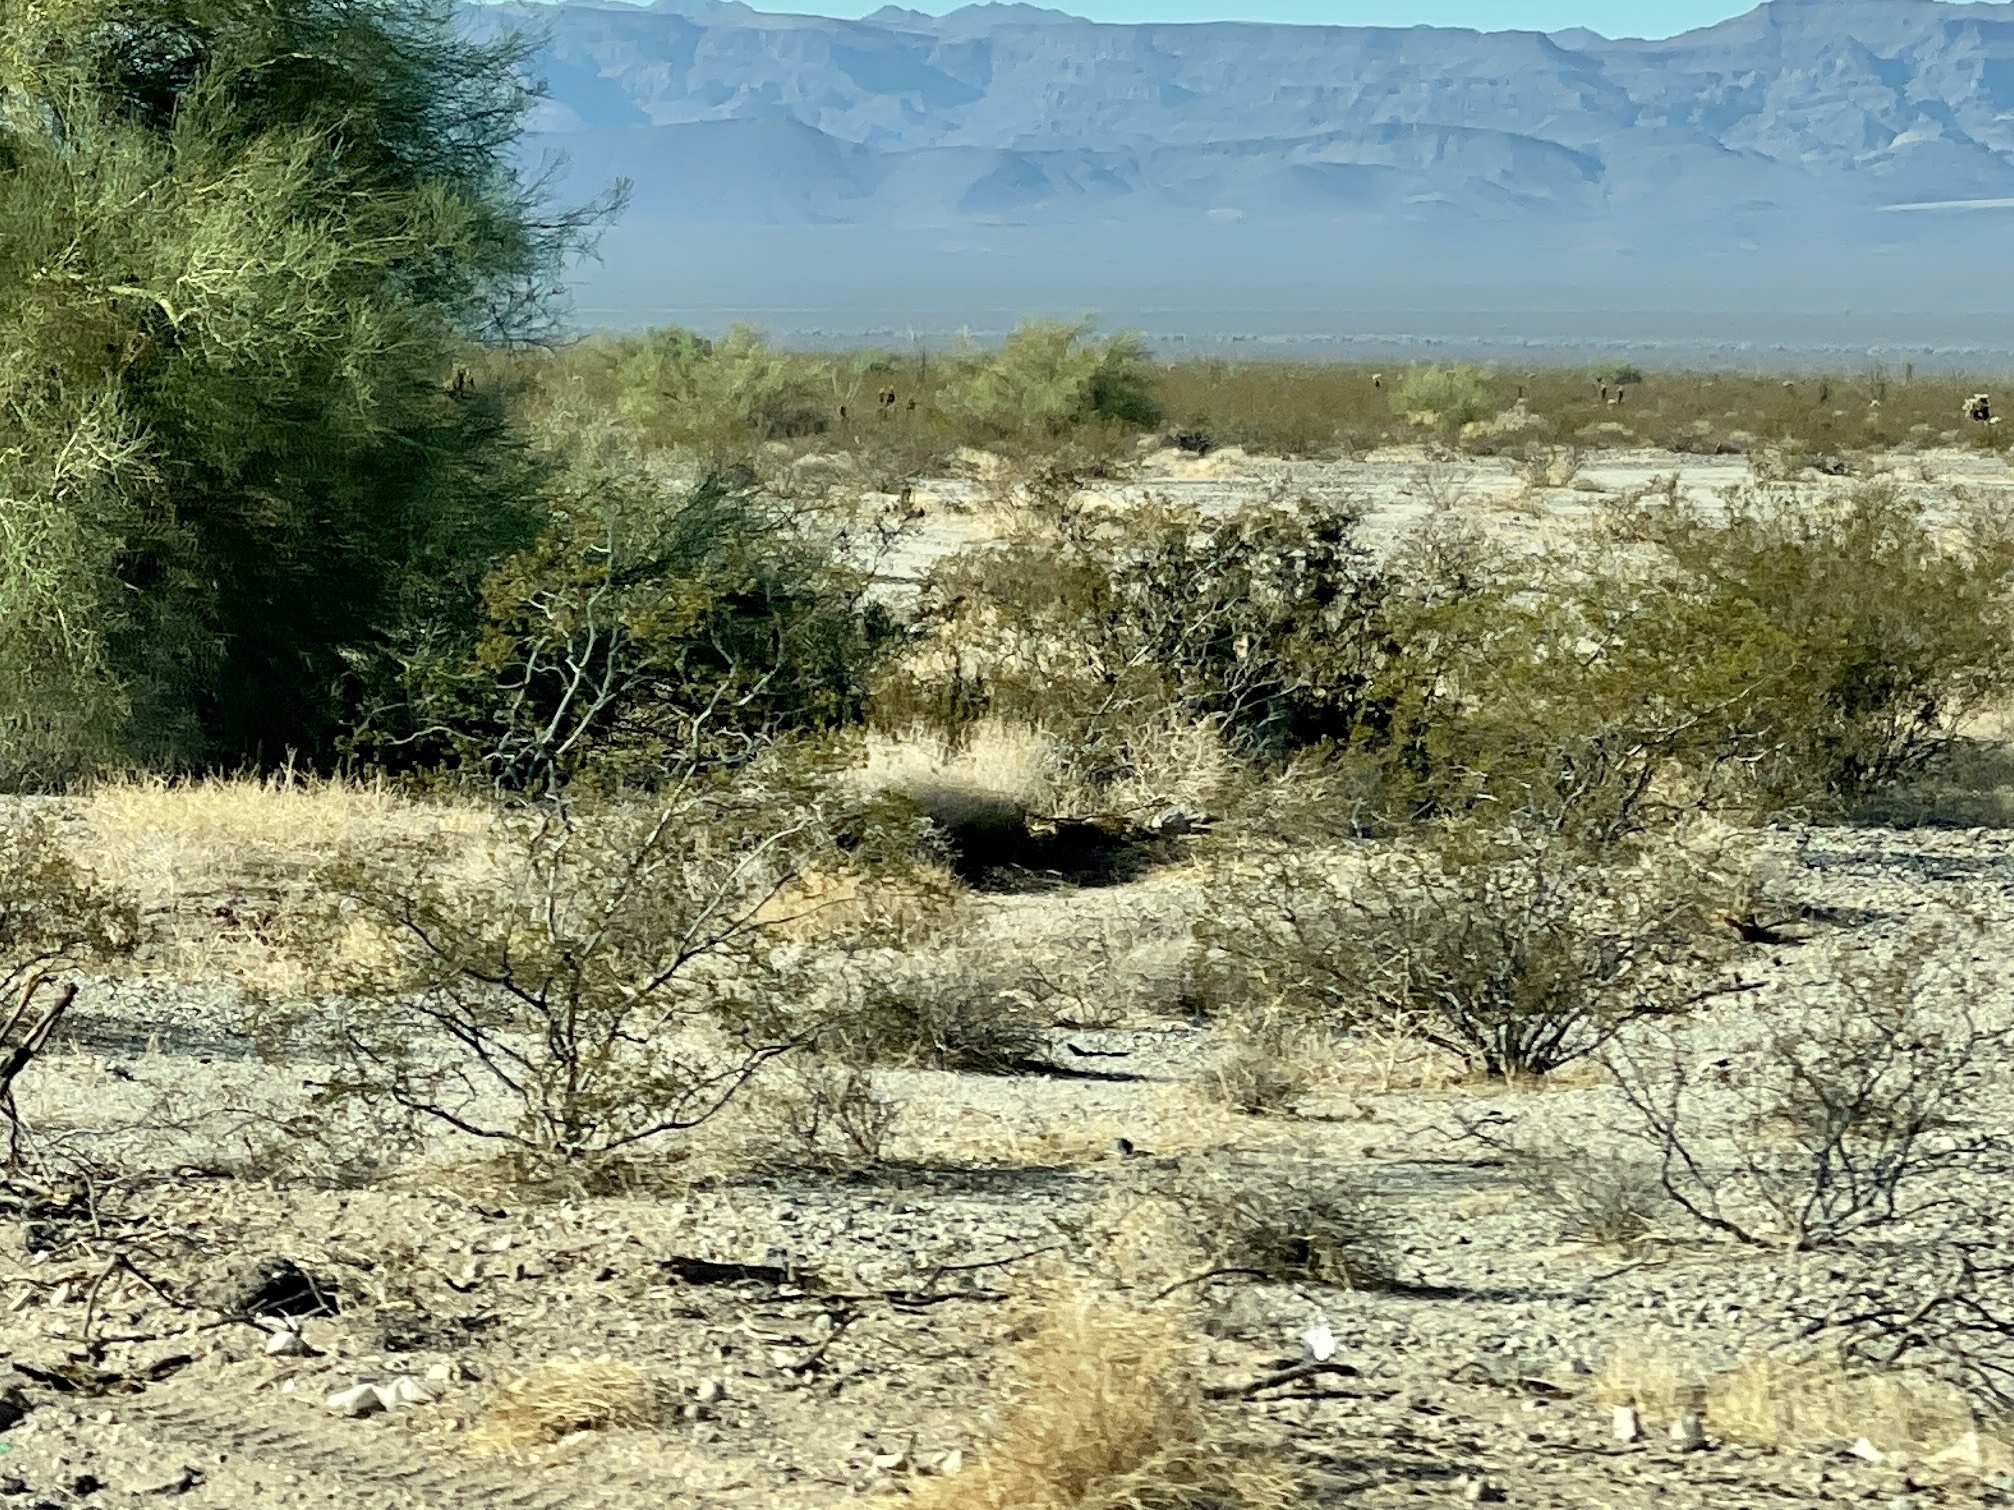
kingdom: Plantae
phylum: Tracheophyta
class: Magnoliopsida
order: Zygophyllales
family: Zygophyllaceae
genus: Larrea
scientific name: Larrea tridentata
